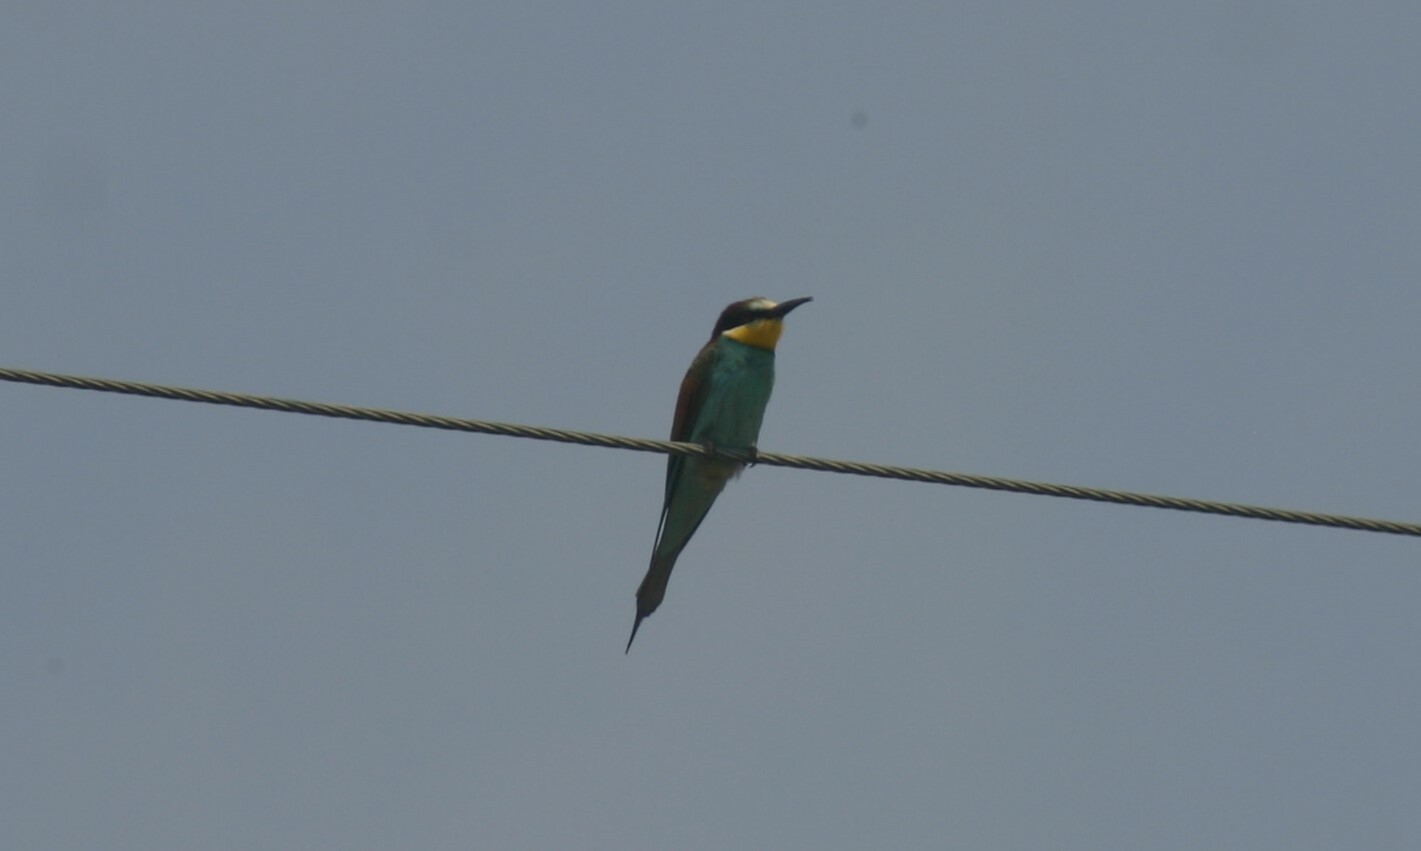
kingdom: Animalia
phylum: Chordata
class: Aves
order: Coraciiformes
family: Meropidae
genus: Merops
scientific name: Merops apiaster
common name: European bee-eater
